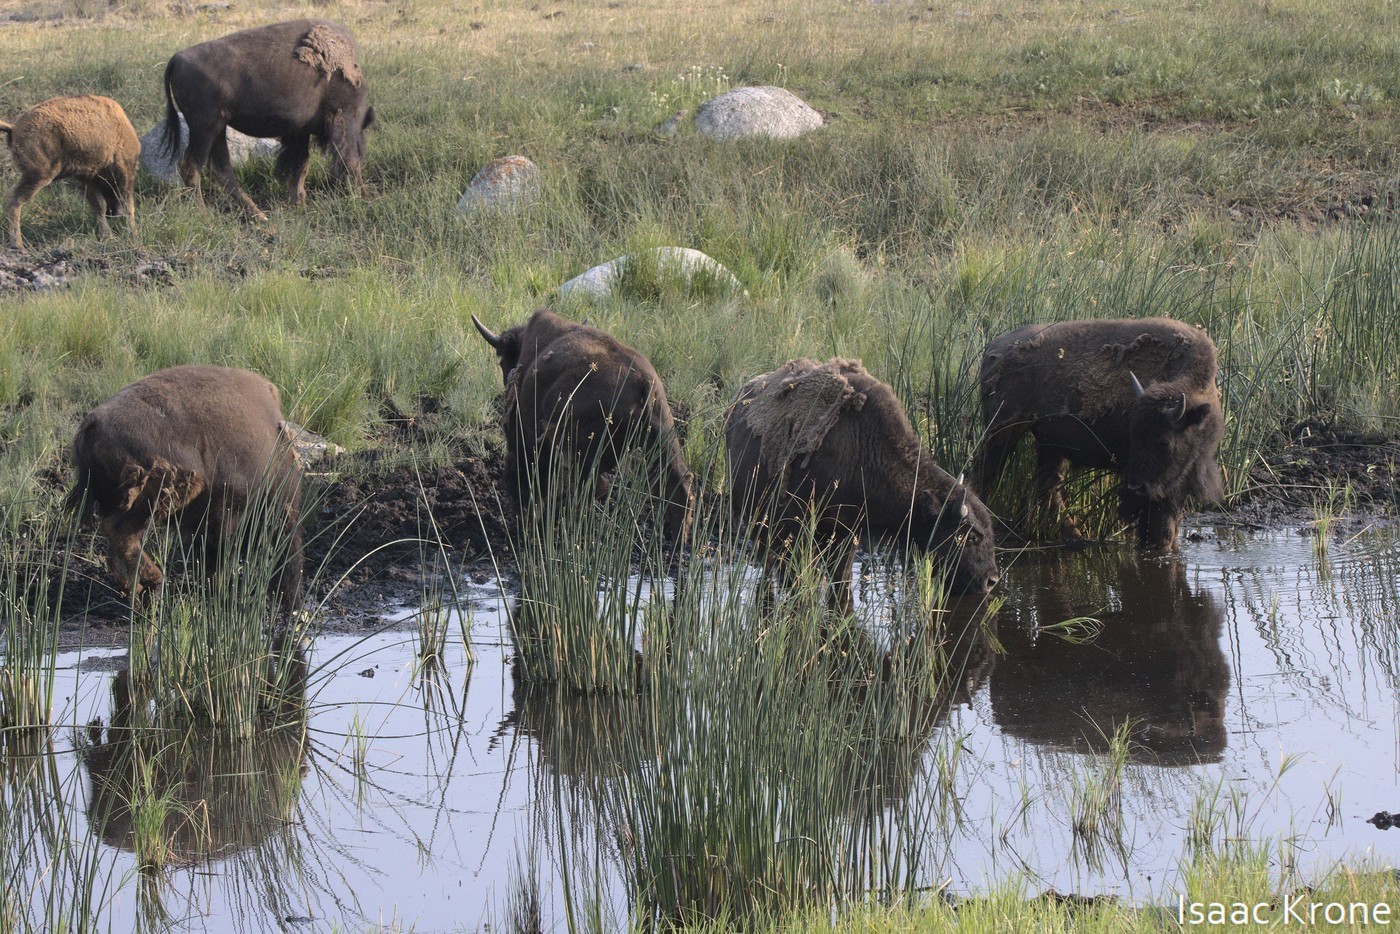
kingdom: Animalia
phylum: Chordata
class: Mammalia
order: Artiodactyla
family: Bovidae
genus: Bison
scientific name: Bison bison
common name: American bison
